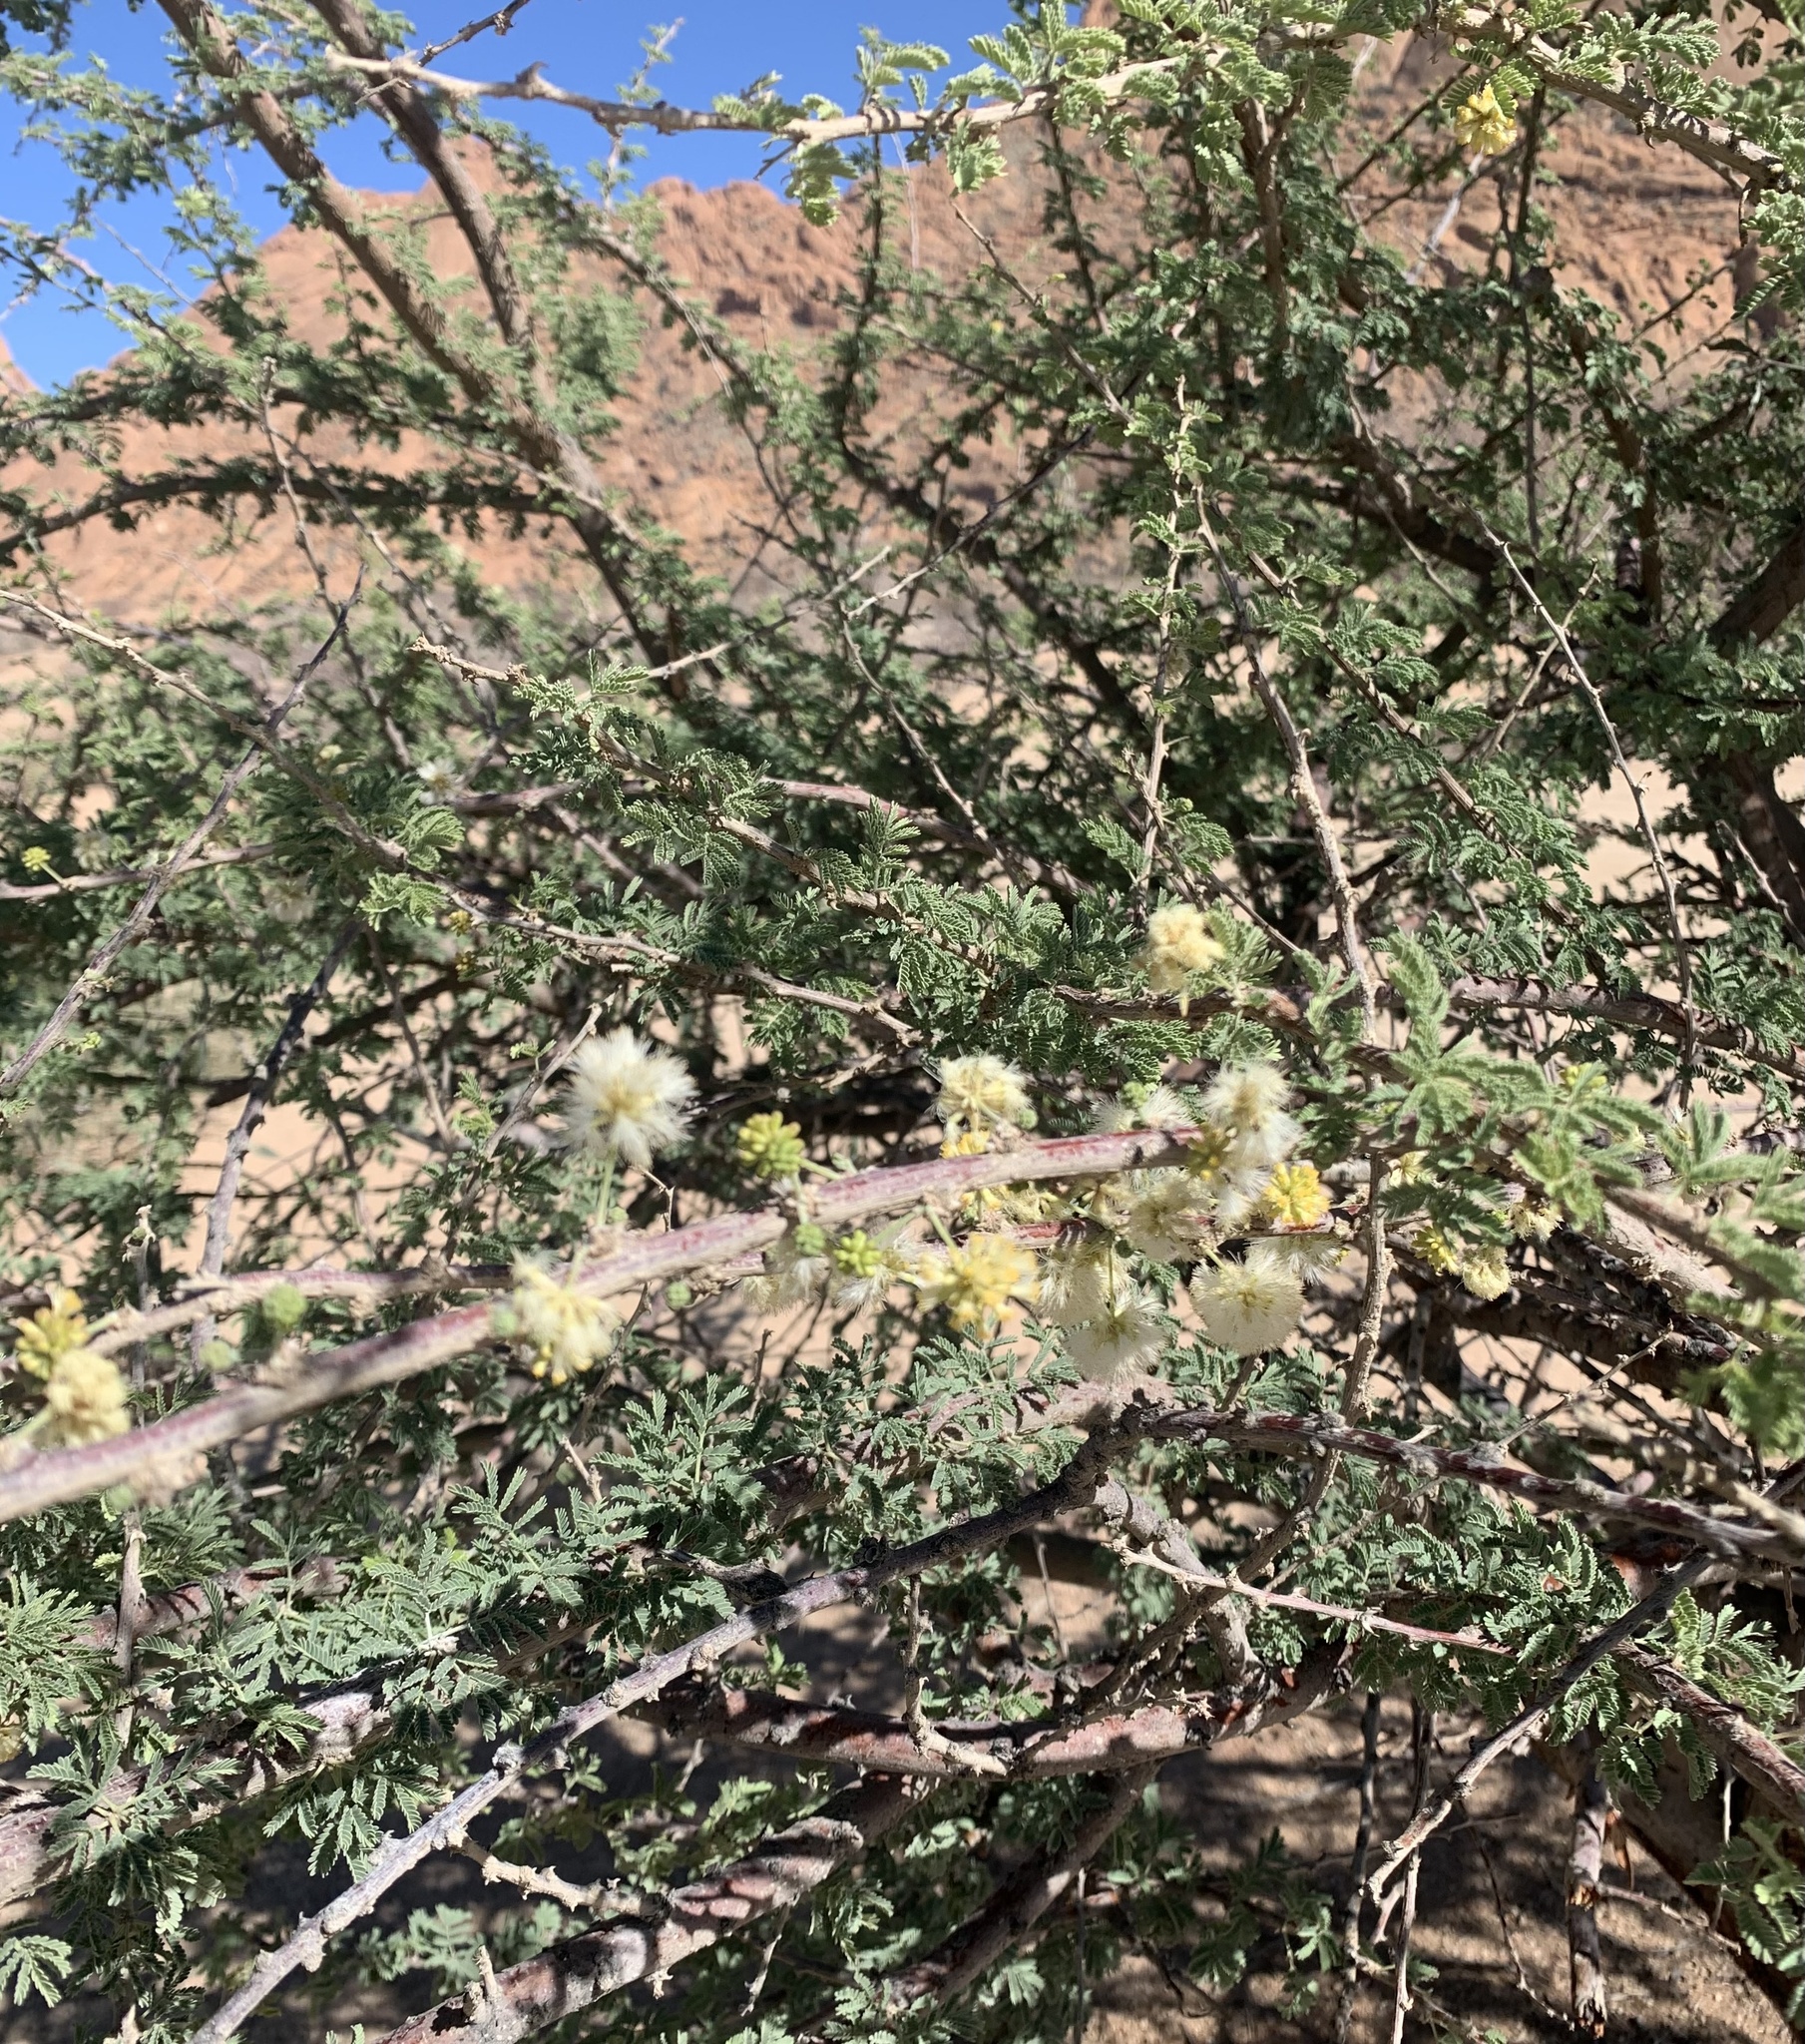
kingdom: Plantae
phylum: Tracheophyta
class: Magnoliopsida
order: Fabales
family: Fabaceae
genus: Vachellia
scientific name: Vachellia hebeclada
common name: Candle thorn
